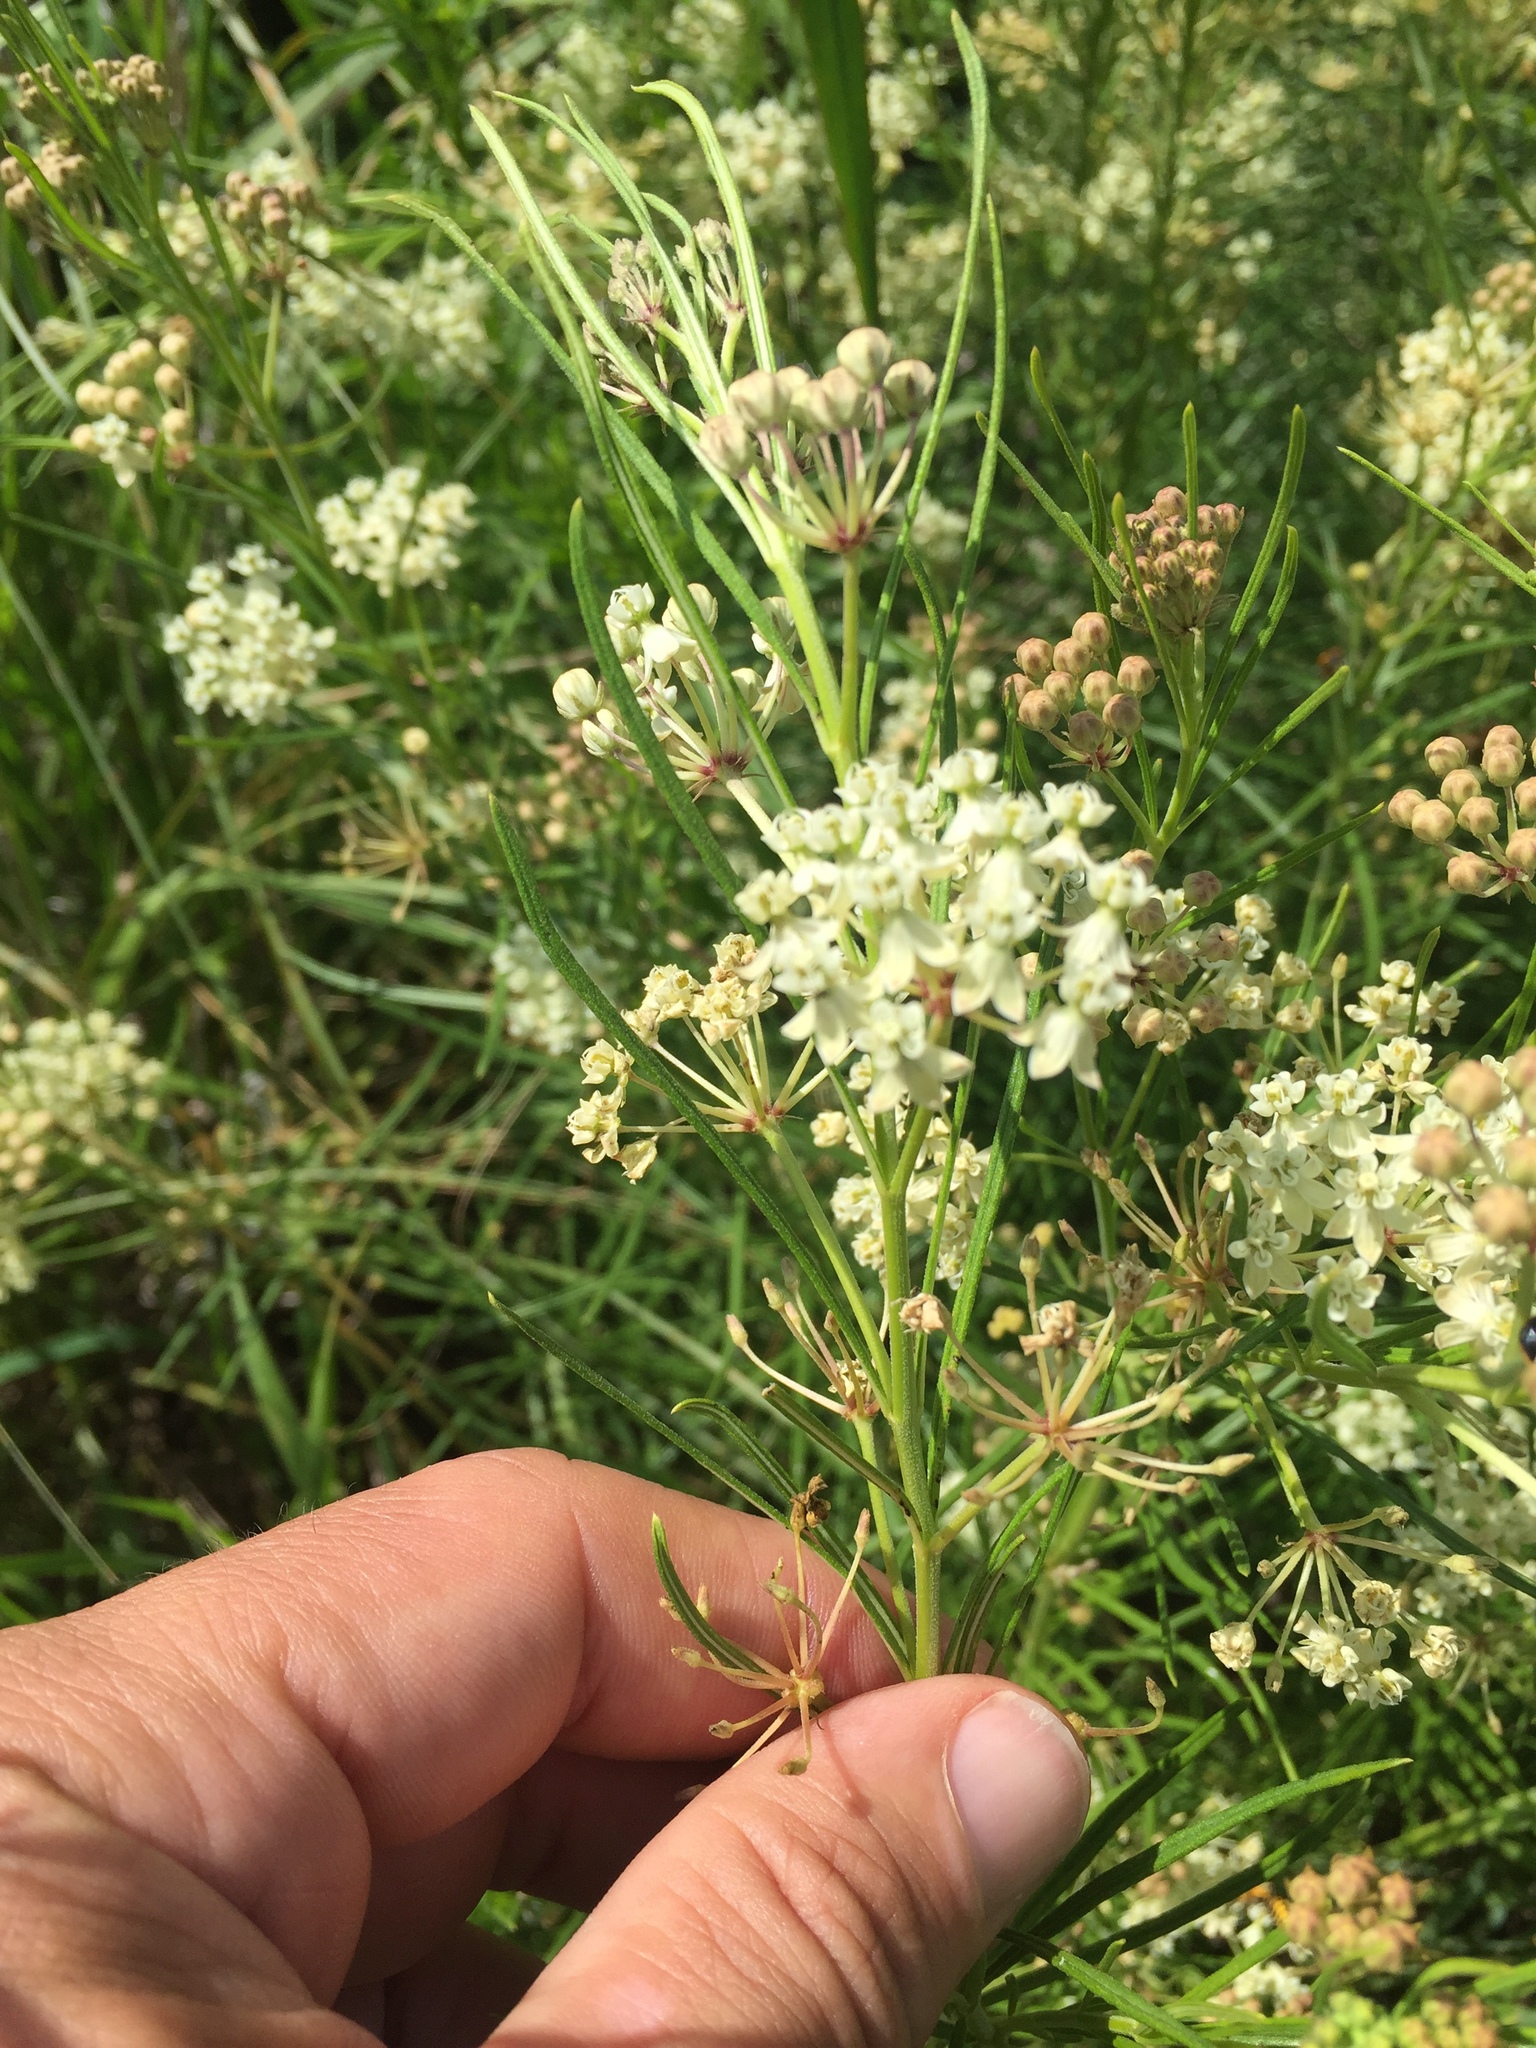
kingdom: Plantae
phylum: Tracheophyta
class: Magnoliopsida
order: Gentianales
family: Apocynaceae
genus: Asclepias
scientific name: Asclepias verticillata
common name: Eastern whorled milkweed
